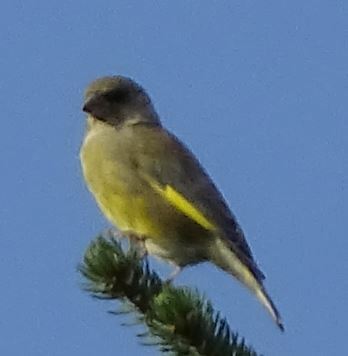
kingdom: Plantae
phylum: Tracheophyta
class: Liliopsida
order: Poales
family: Poaceae
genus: Chloris
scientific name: Chloris chloris
